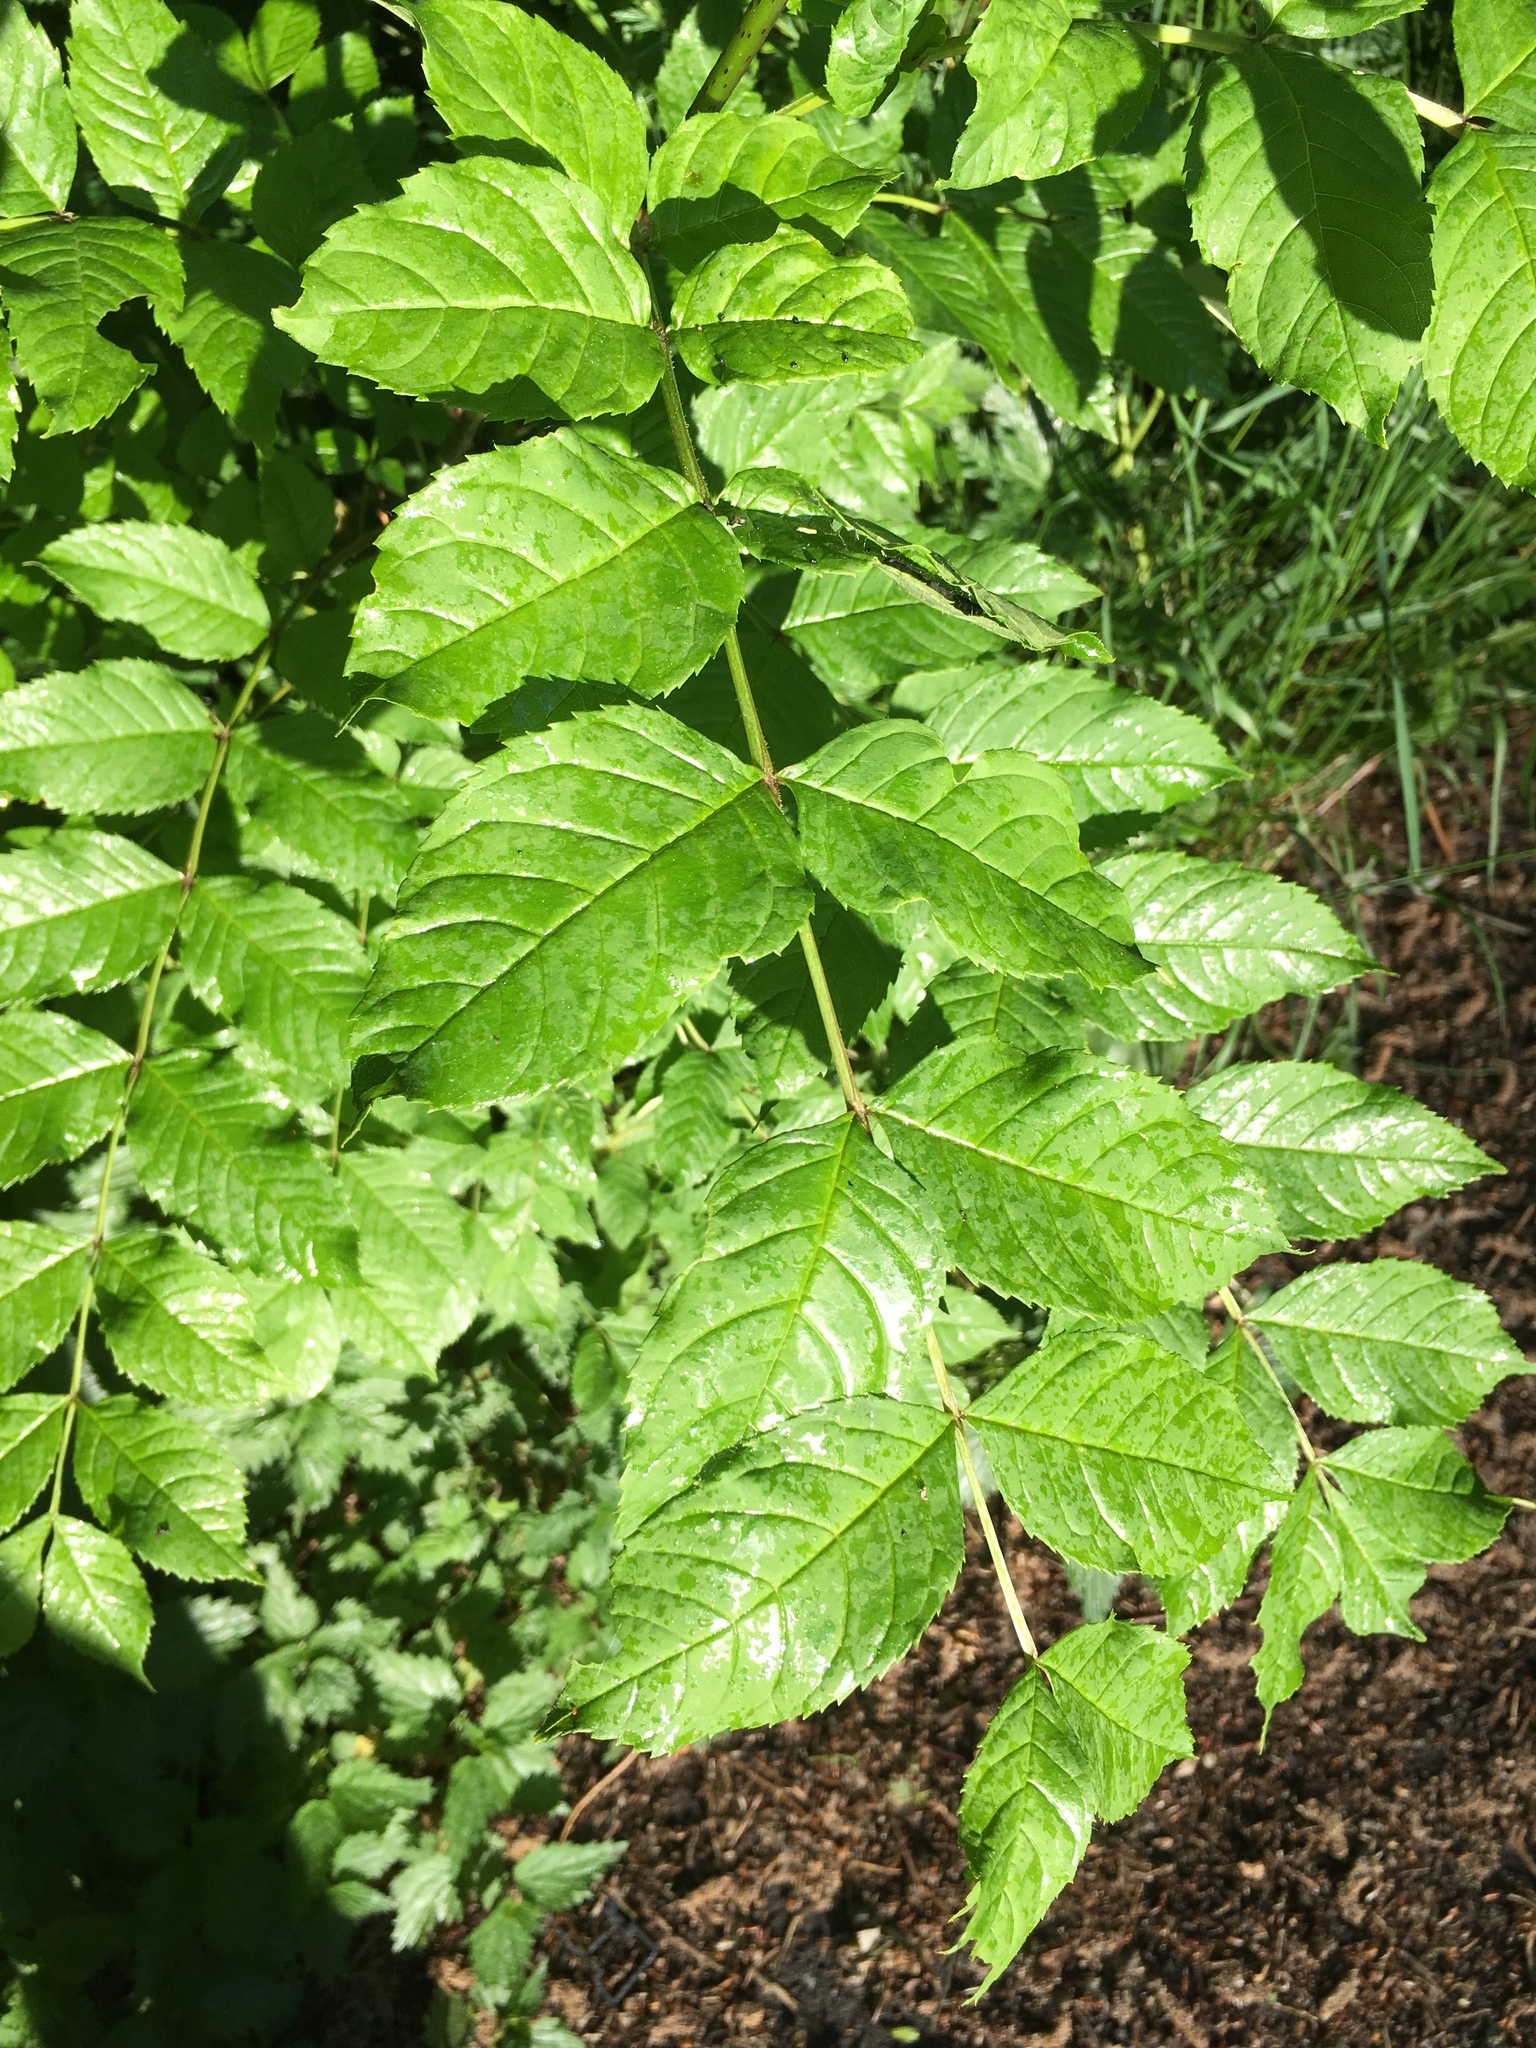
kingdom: Plantae
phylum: Tracheophyta
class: Magnoliopsida
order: Lamiales
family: Oleaceae
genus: Fraxinus
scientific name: Fraxinus excelsior
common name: European ash
